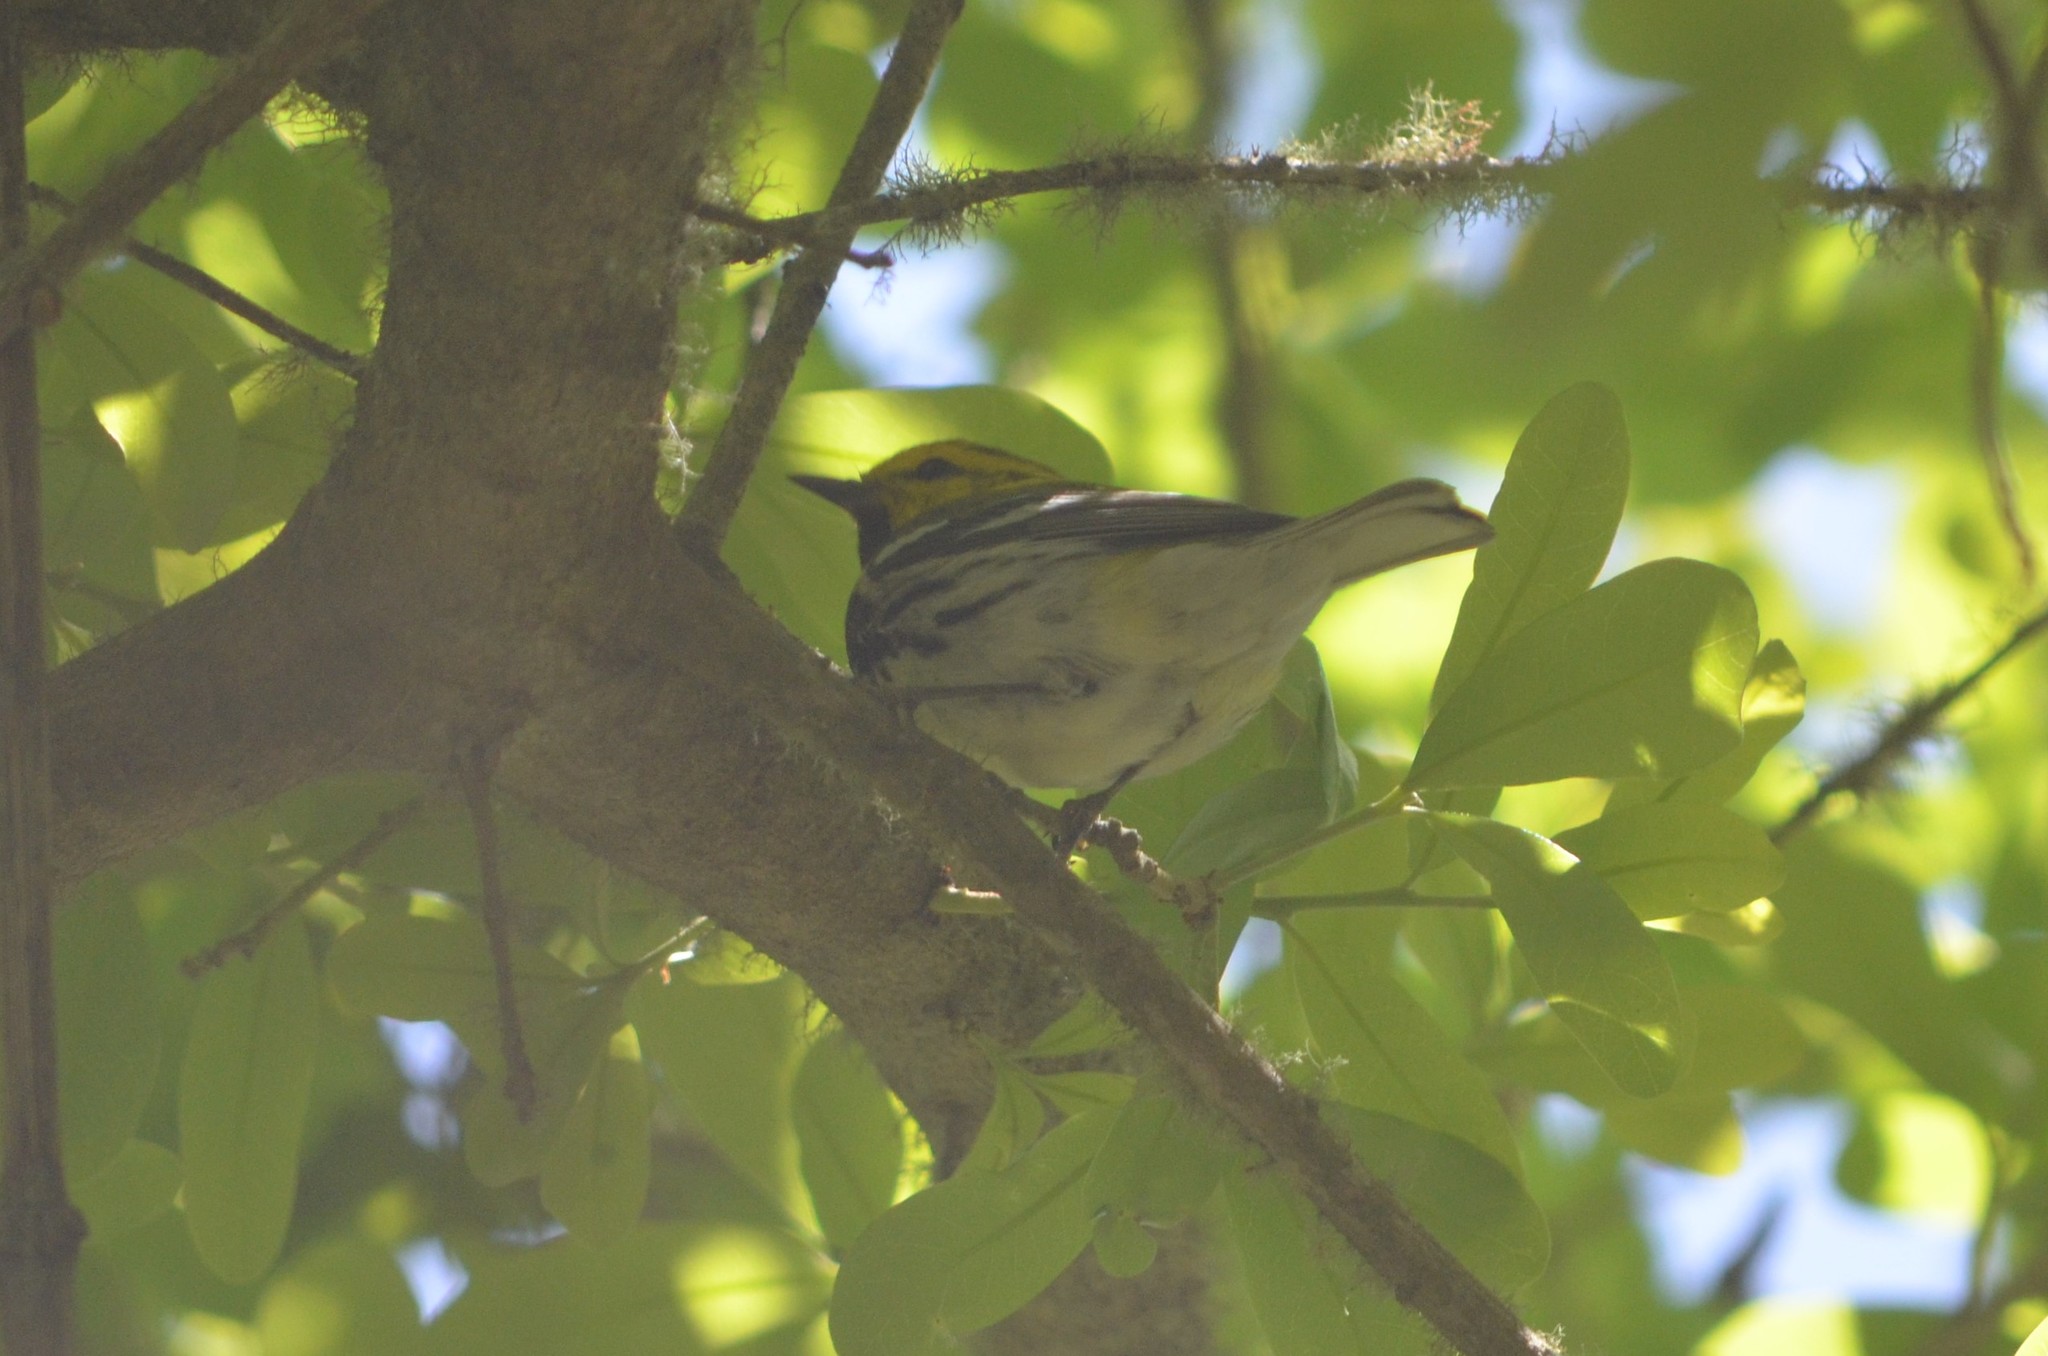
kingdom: Animalia
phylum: Chordata
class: Aves
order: Passeriformes
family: Parulidae
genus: Setophaga
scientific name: Setophaga virens
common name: Black-throated green warbler
